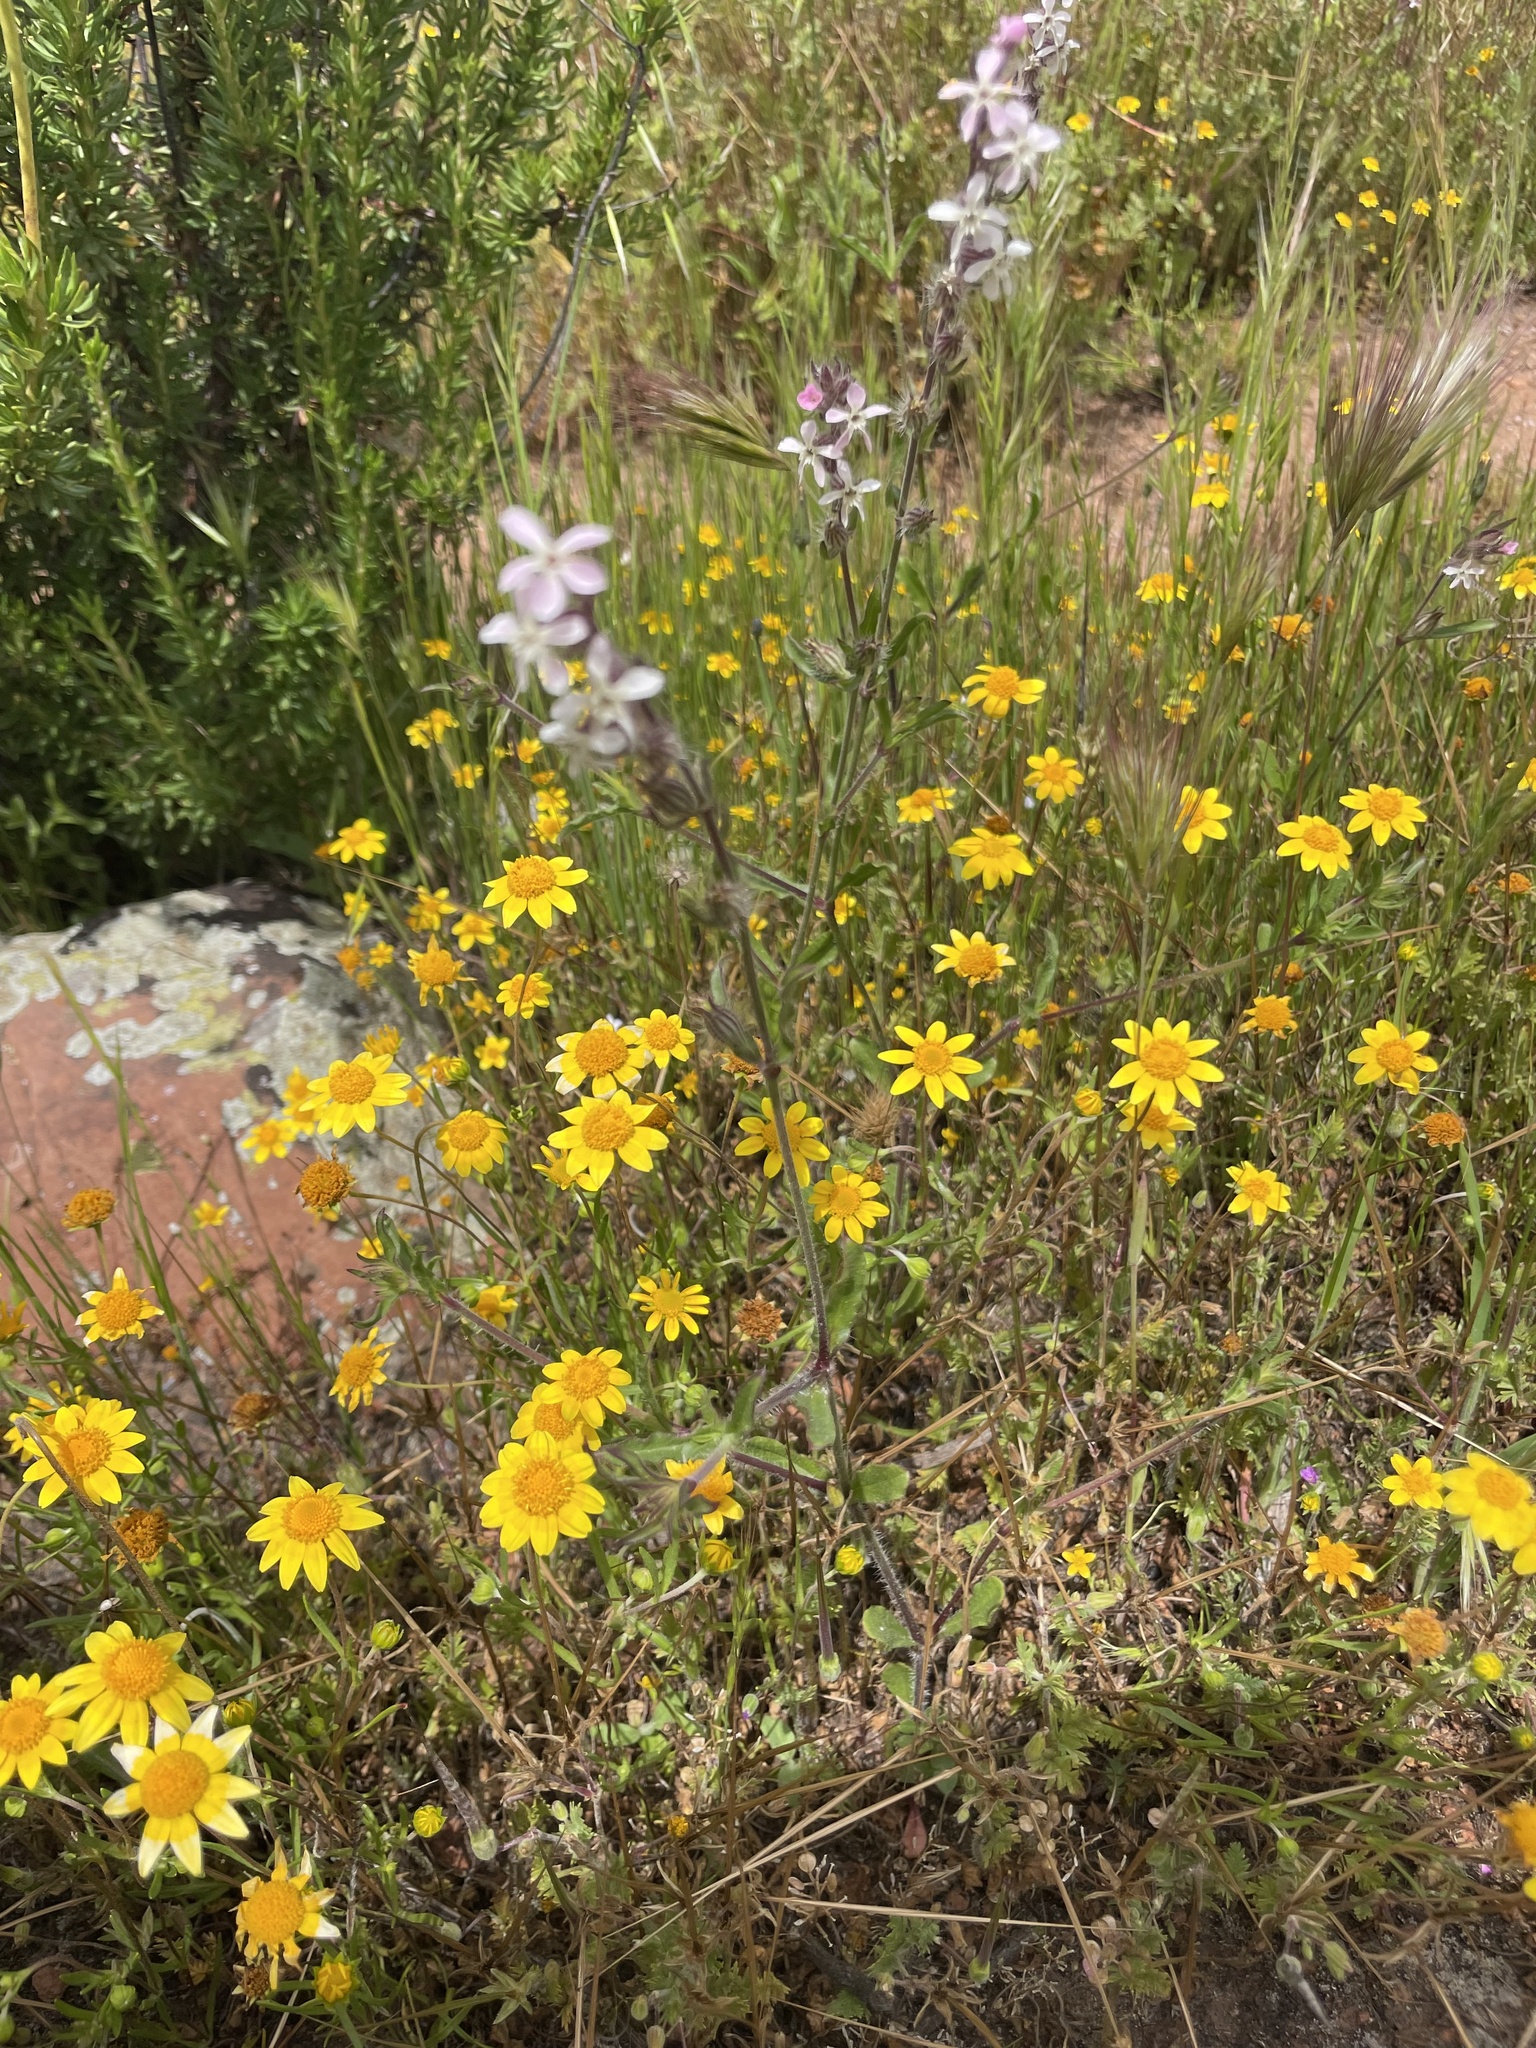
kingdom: Plantae
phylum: Tracheophyta
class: Magnoliopsida
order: Caryophyllales
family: Caryophyllaceae
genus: Silene
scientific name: Silene gallica
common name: Small-flowered catchfly
